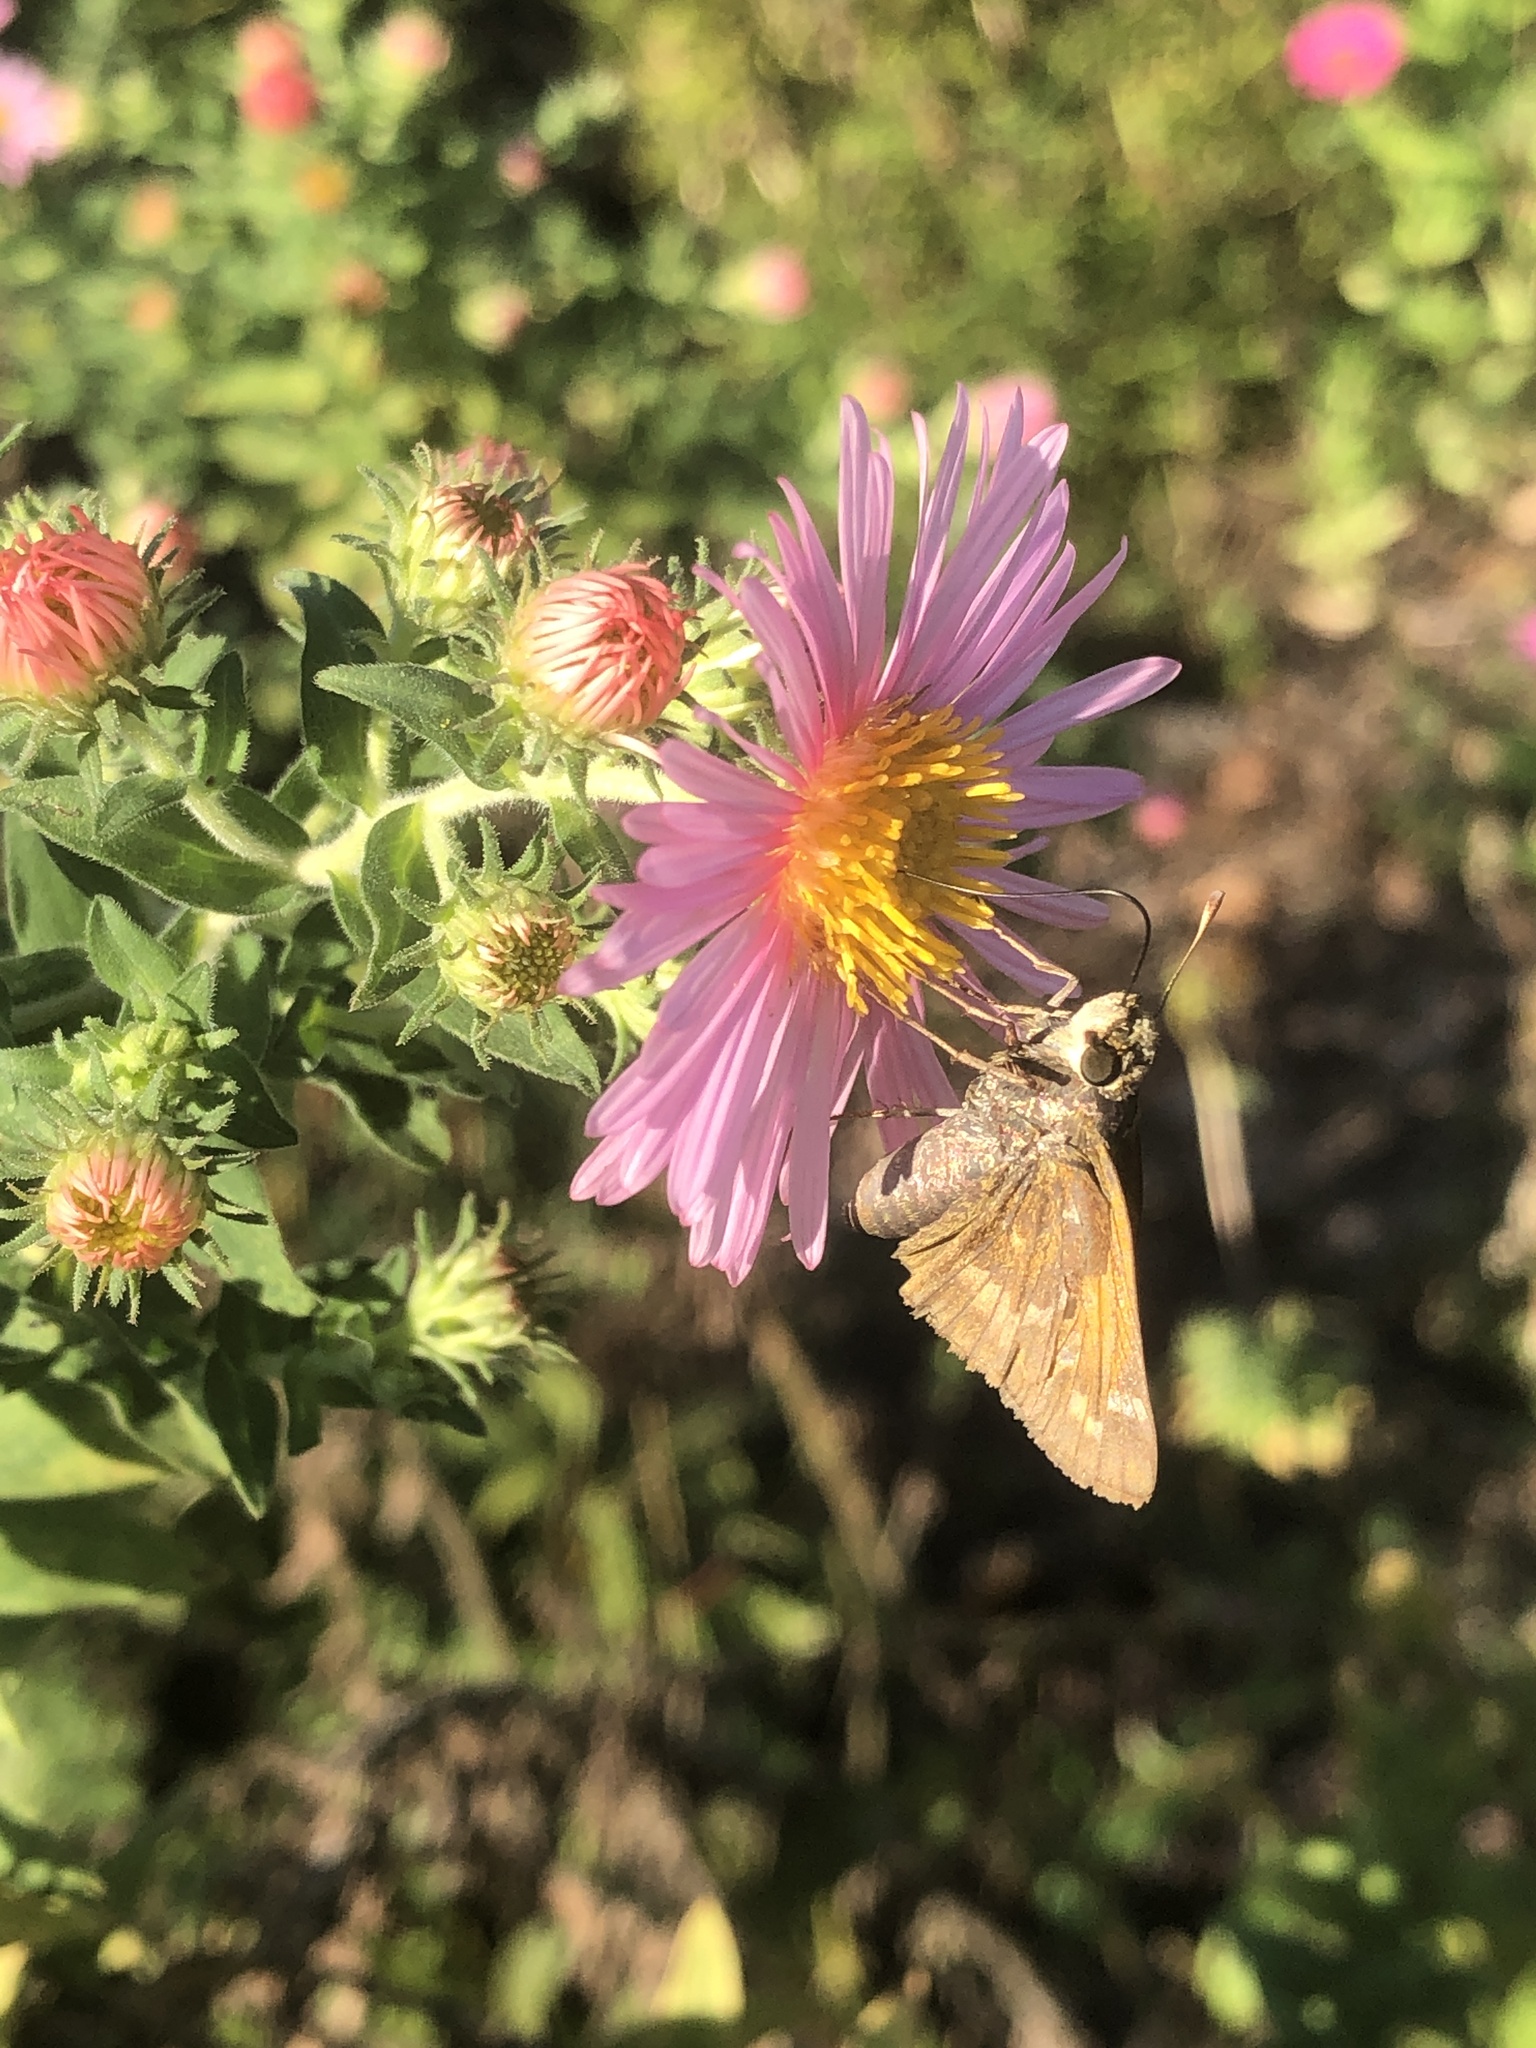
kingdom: Animalia
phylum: Arthropoda
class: Insecta
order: Lepidoptera
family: Hesperiidae
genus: Atalopedes
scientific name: Atalopedes
